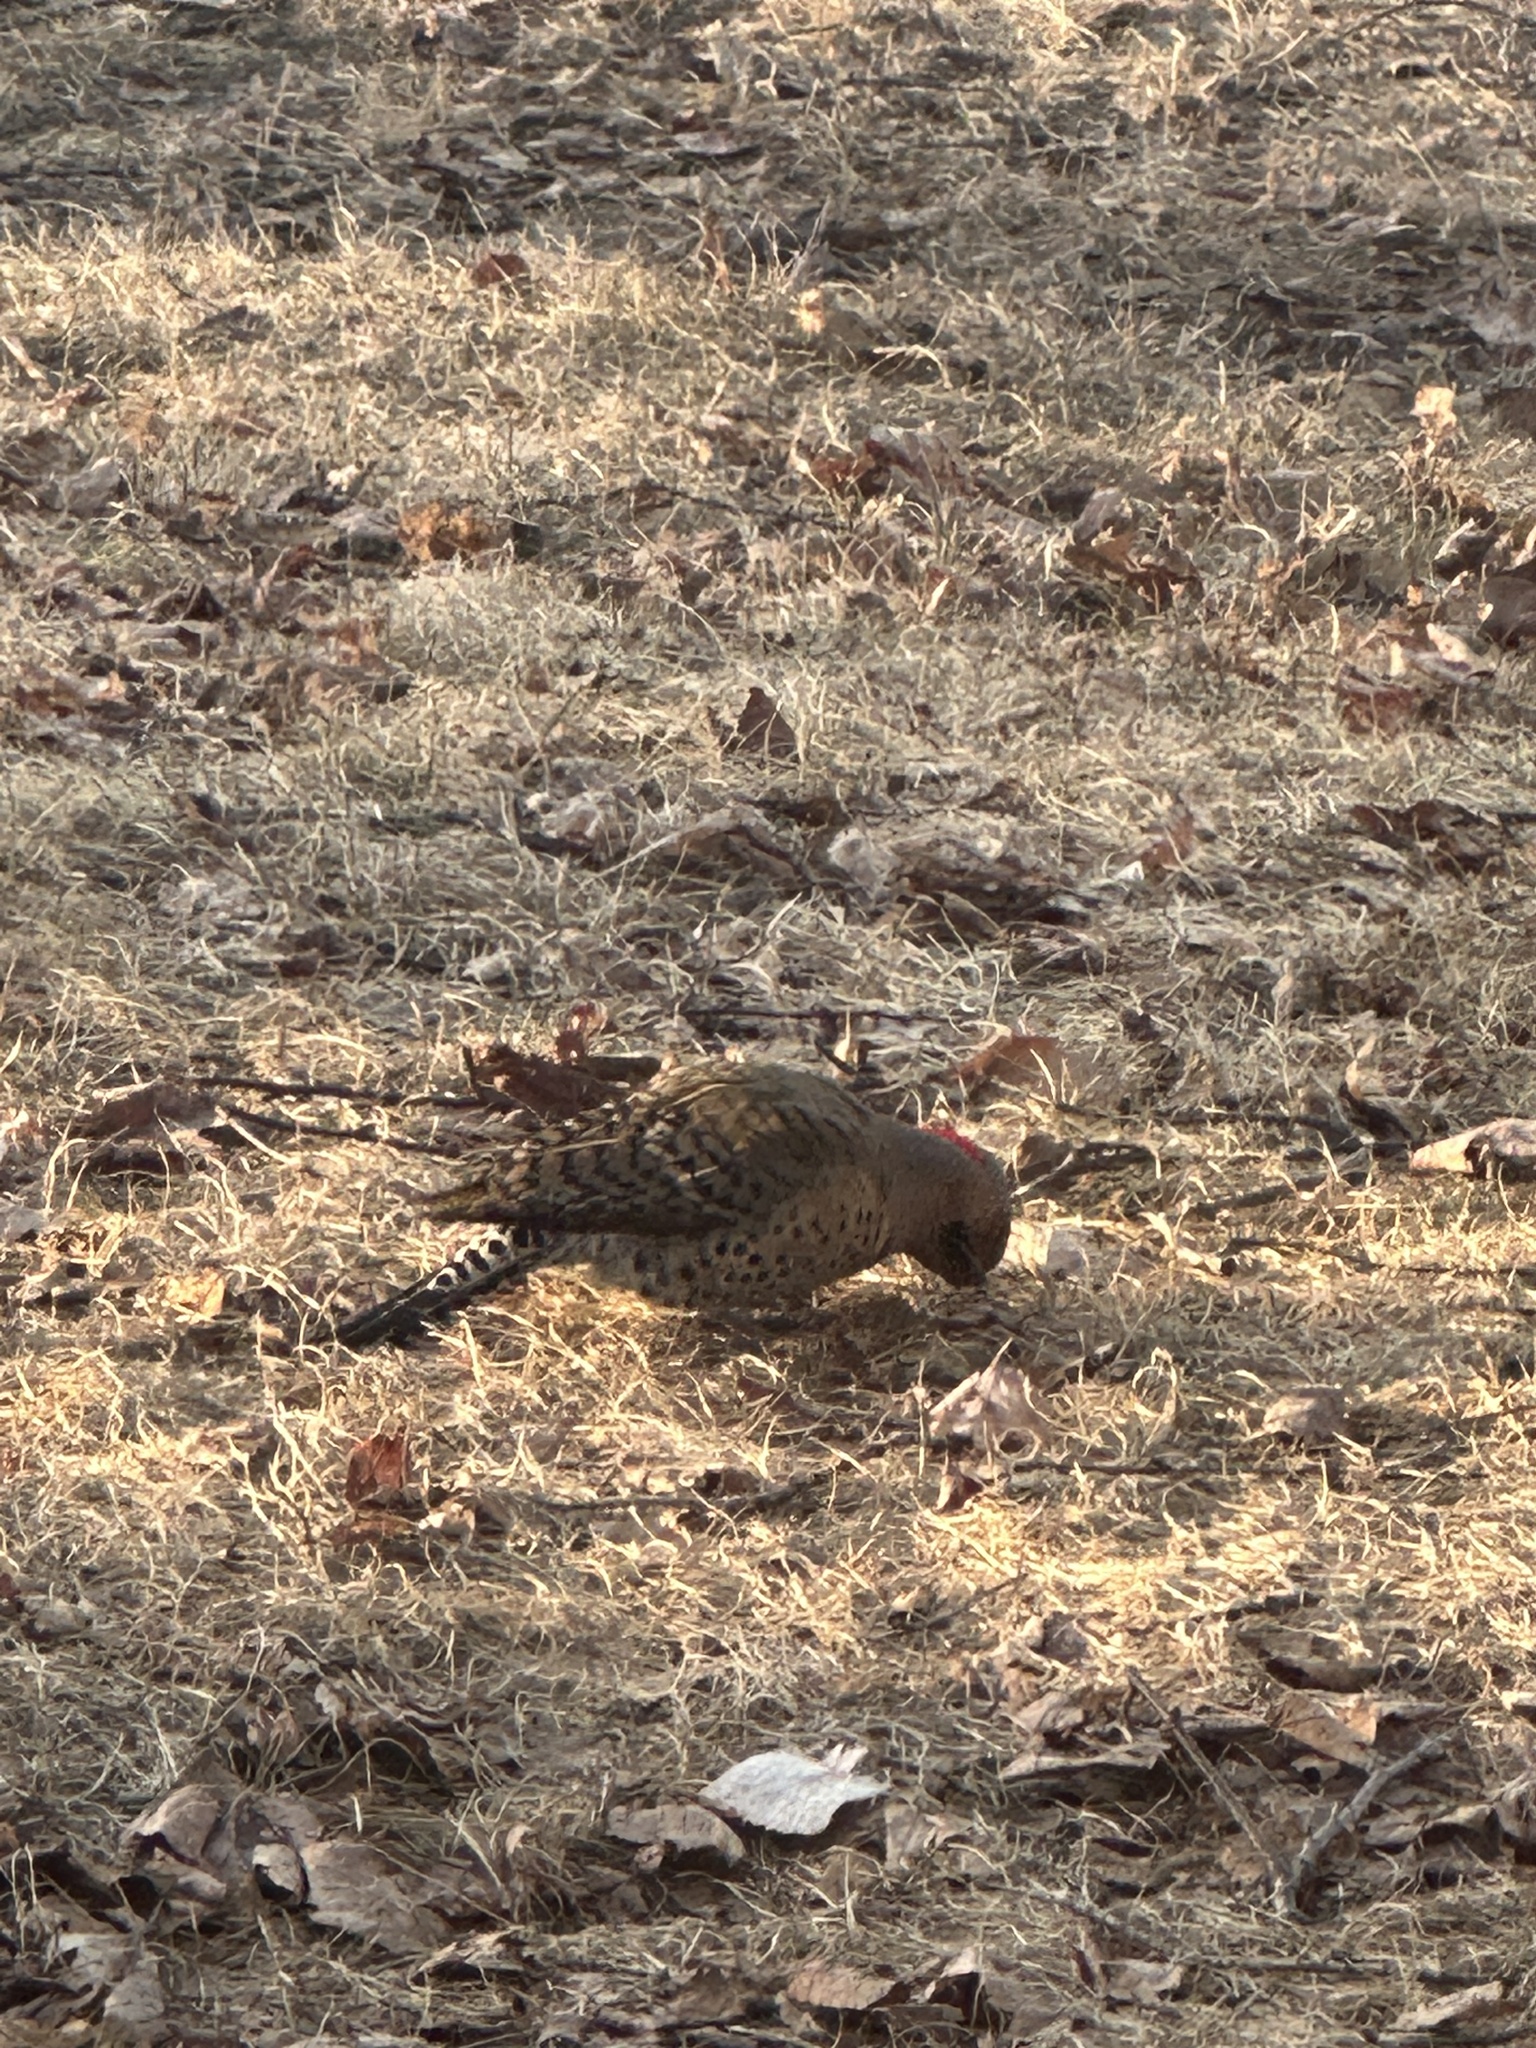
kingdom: Animalia
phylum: Chordata
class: Aves
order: Piciformes
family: Picidae
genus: Colaptes
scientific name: Colaptes auratus
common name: Northern flicker
